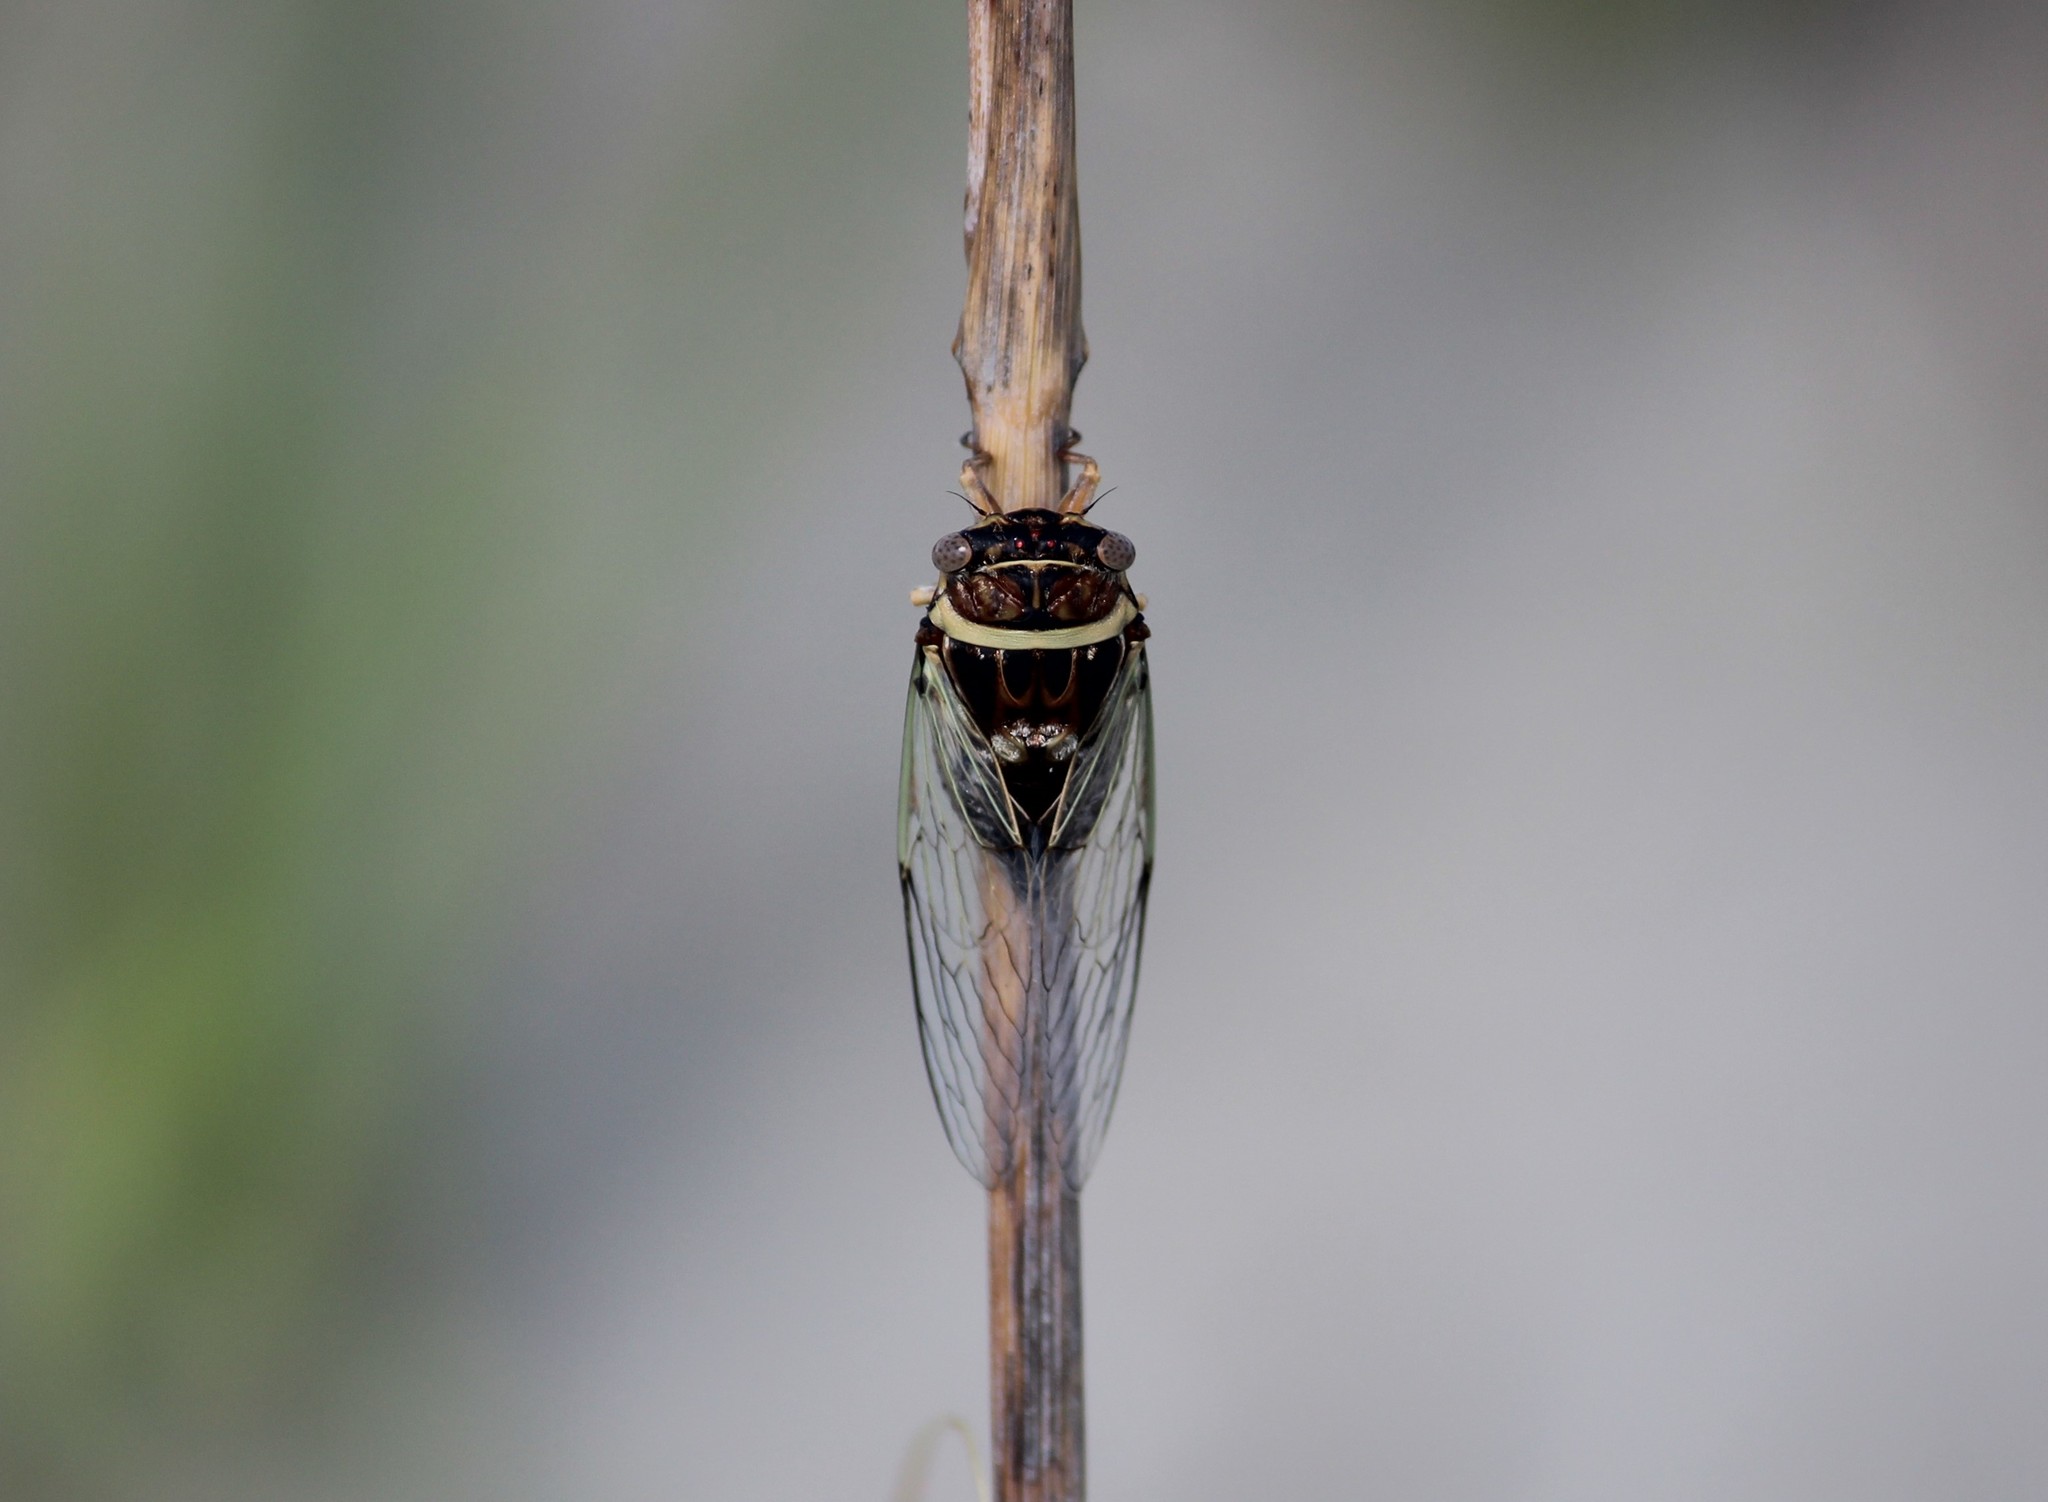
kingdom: Animalia
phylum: Arthropoda
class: Insecta
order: Hemiptera
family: Cicadidae
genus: Diceroprocta
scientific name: Diceroprocta viridifascia
